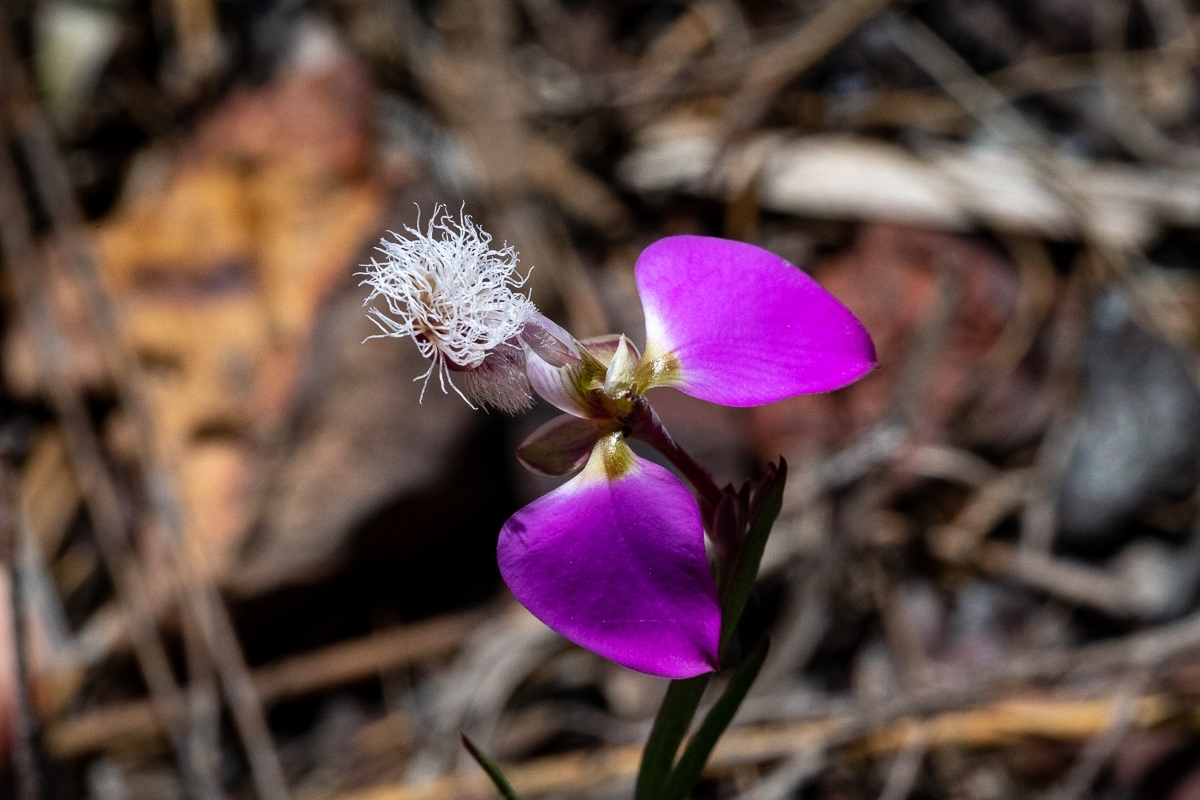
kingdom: Plantae
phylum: Tracheophyta
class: Magnoliopsida
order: Fabales
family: Polygalaceae
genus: Polygala
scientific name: Polygala bracteolata
